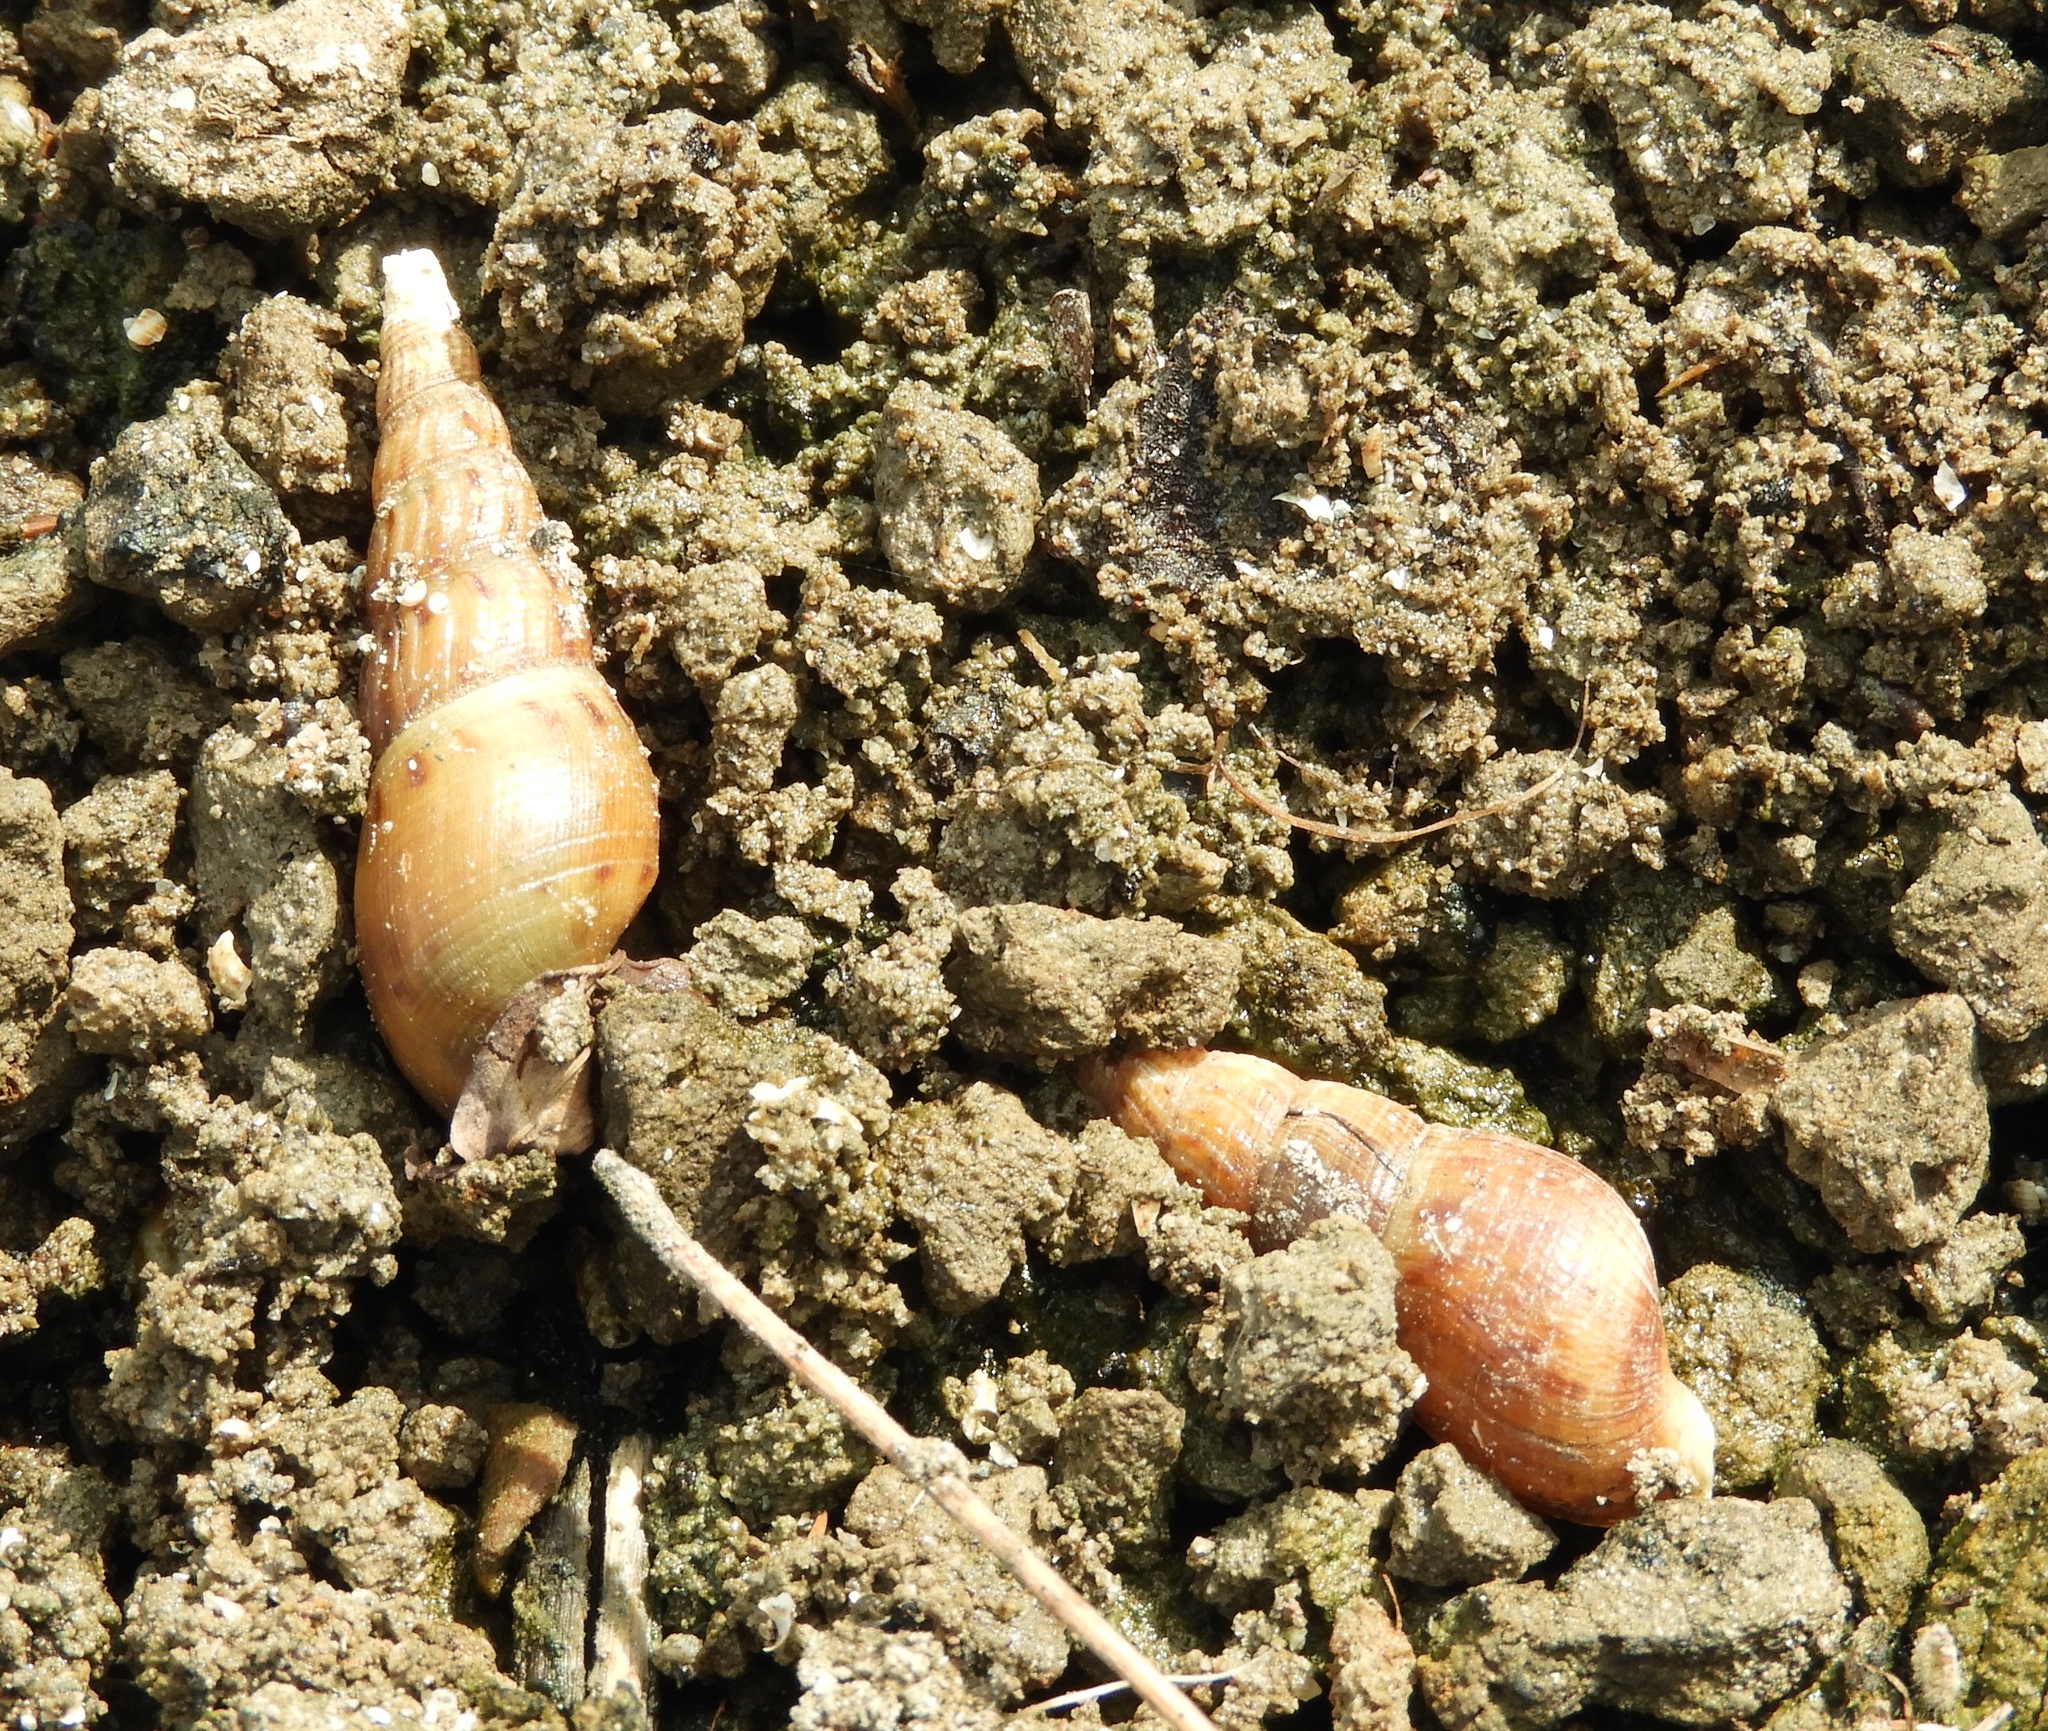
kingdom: Animalia
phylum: Mollusca
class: Gastropoda
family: Thiaridae
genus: Melanoides
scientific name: Melanoides tuberculata
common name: Red-rim melania
